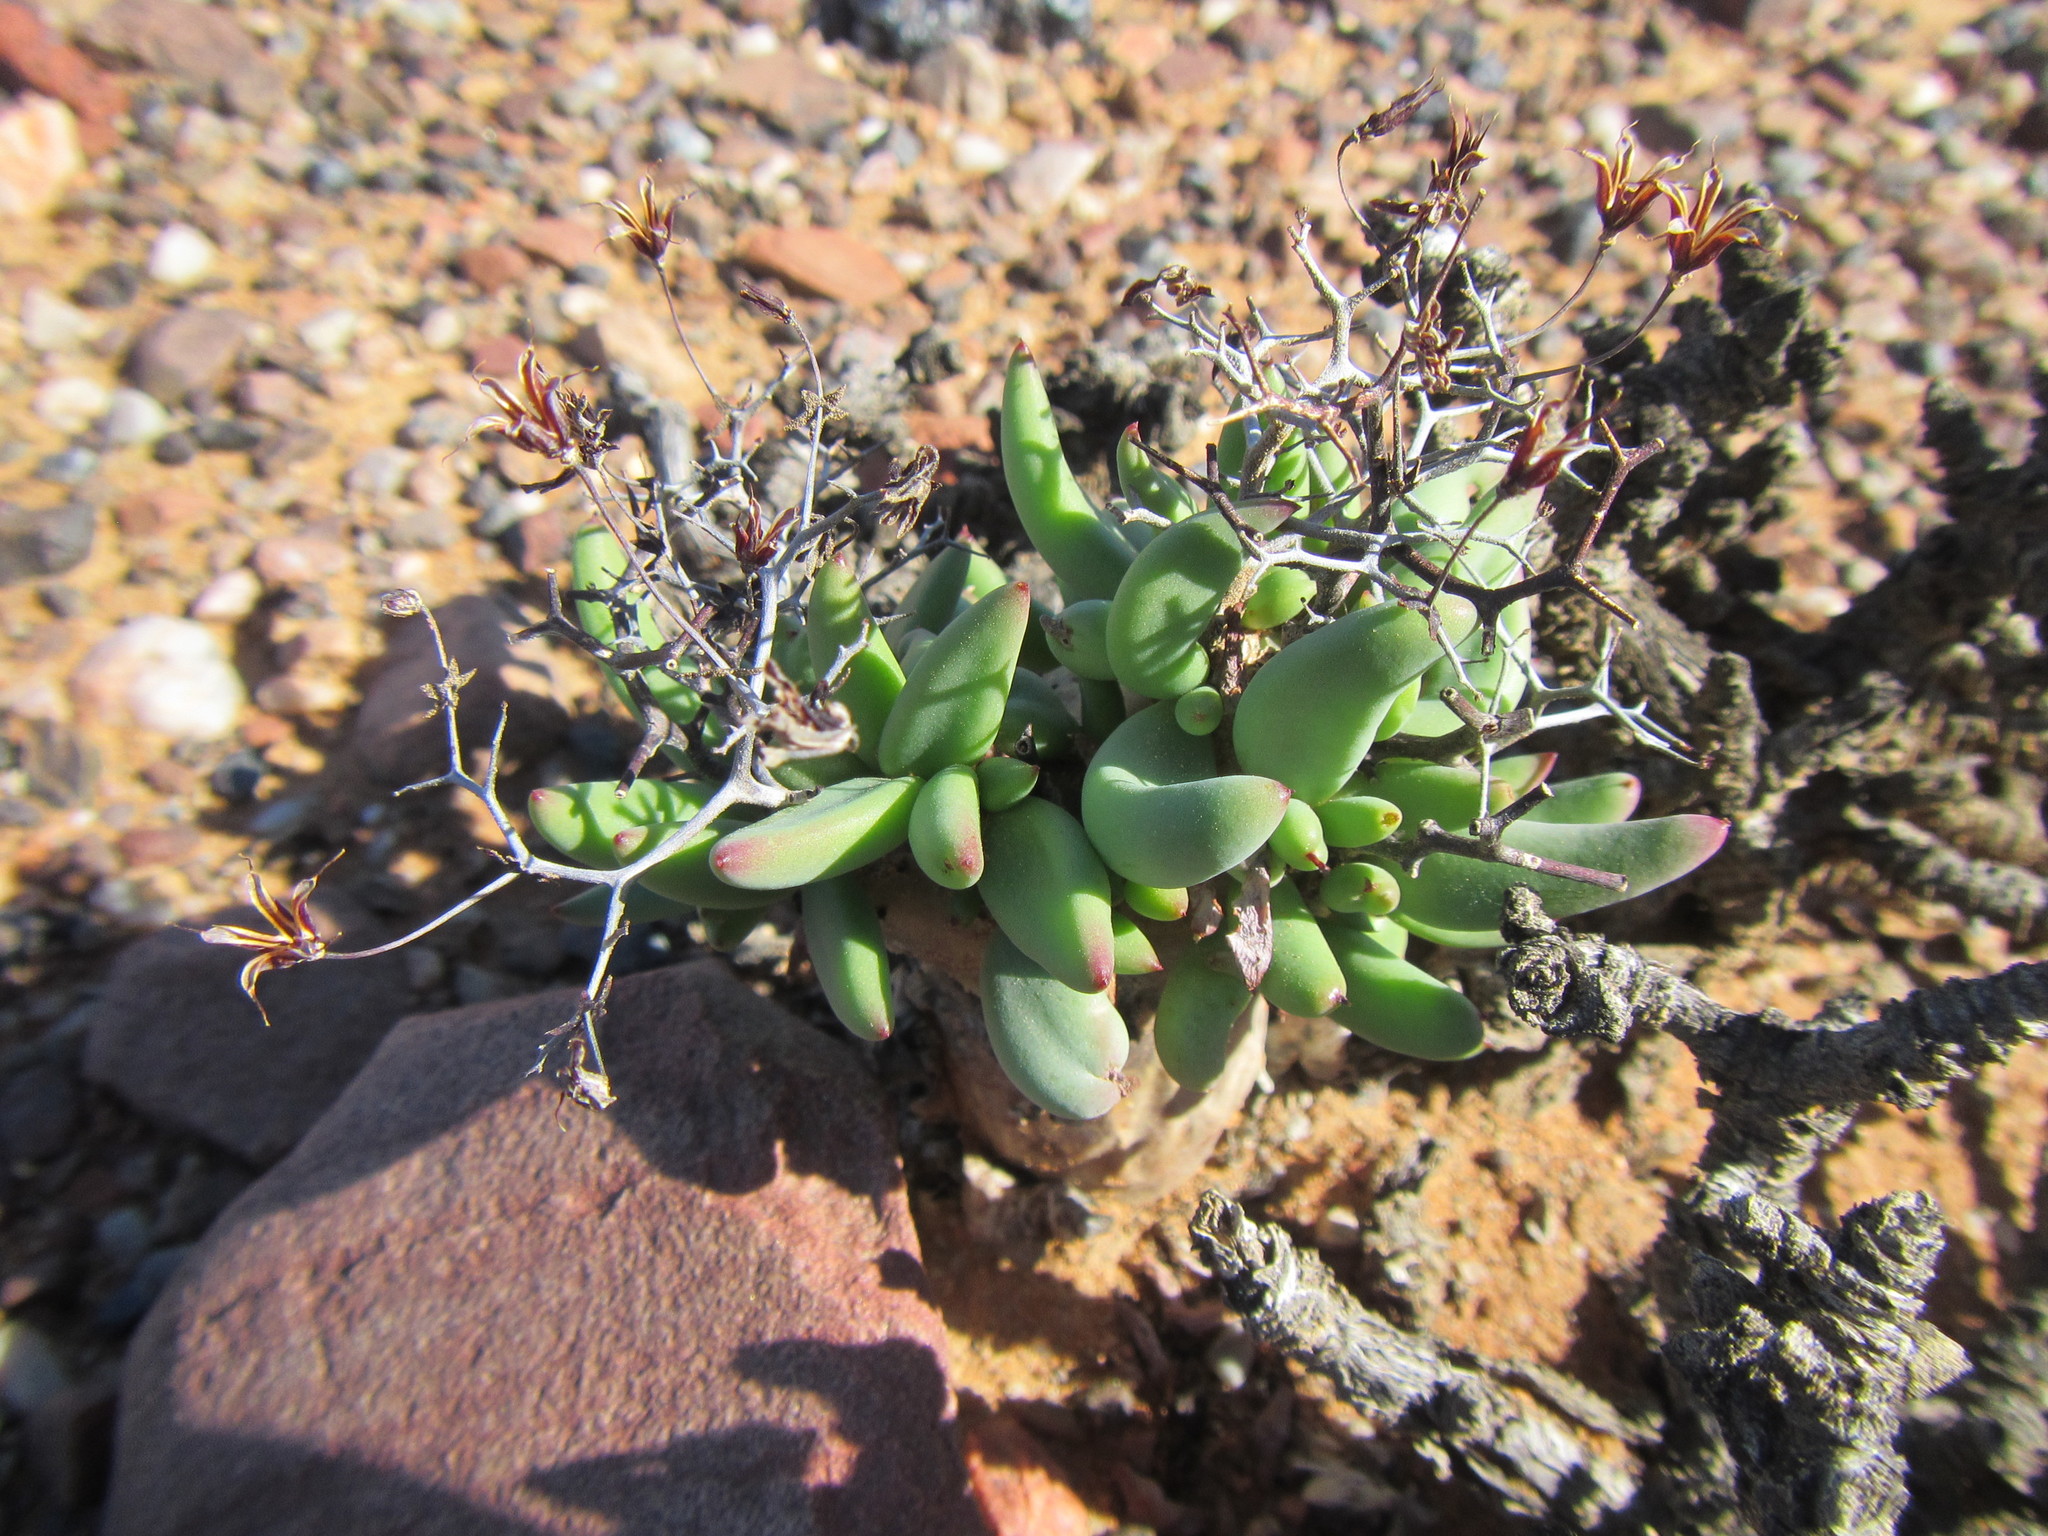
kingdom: Plantae
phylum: Tracheophyta
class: Magnoliopsida
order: Saxifragales
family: Crassulaceae
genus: Tylecodon
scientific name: Tylecodon reticulatus
